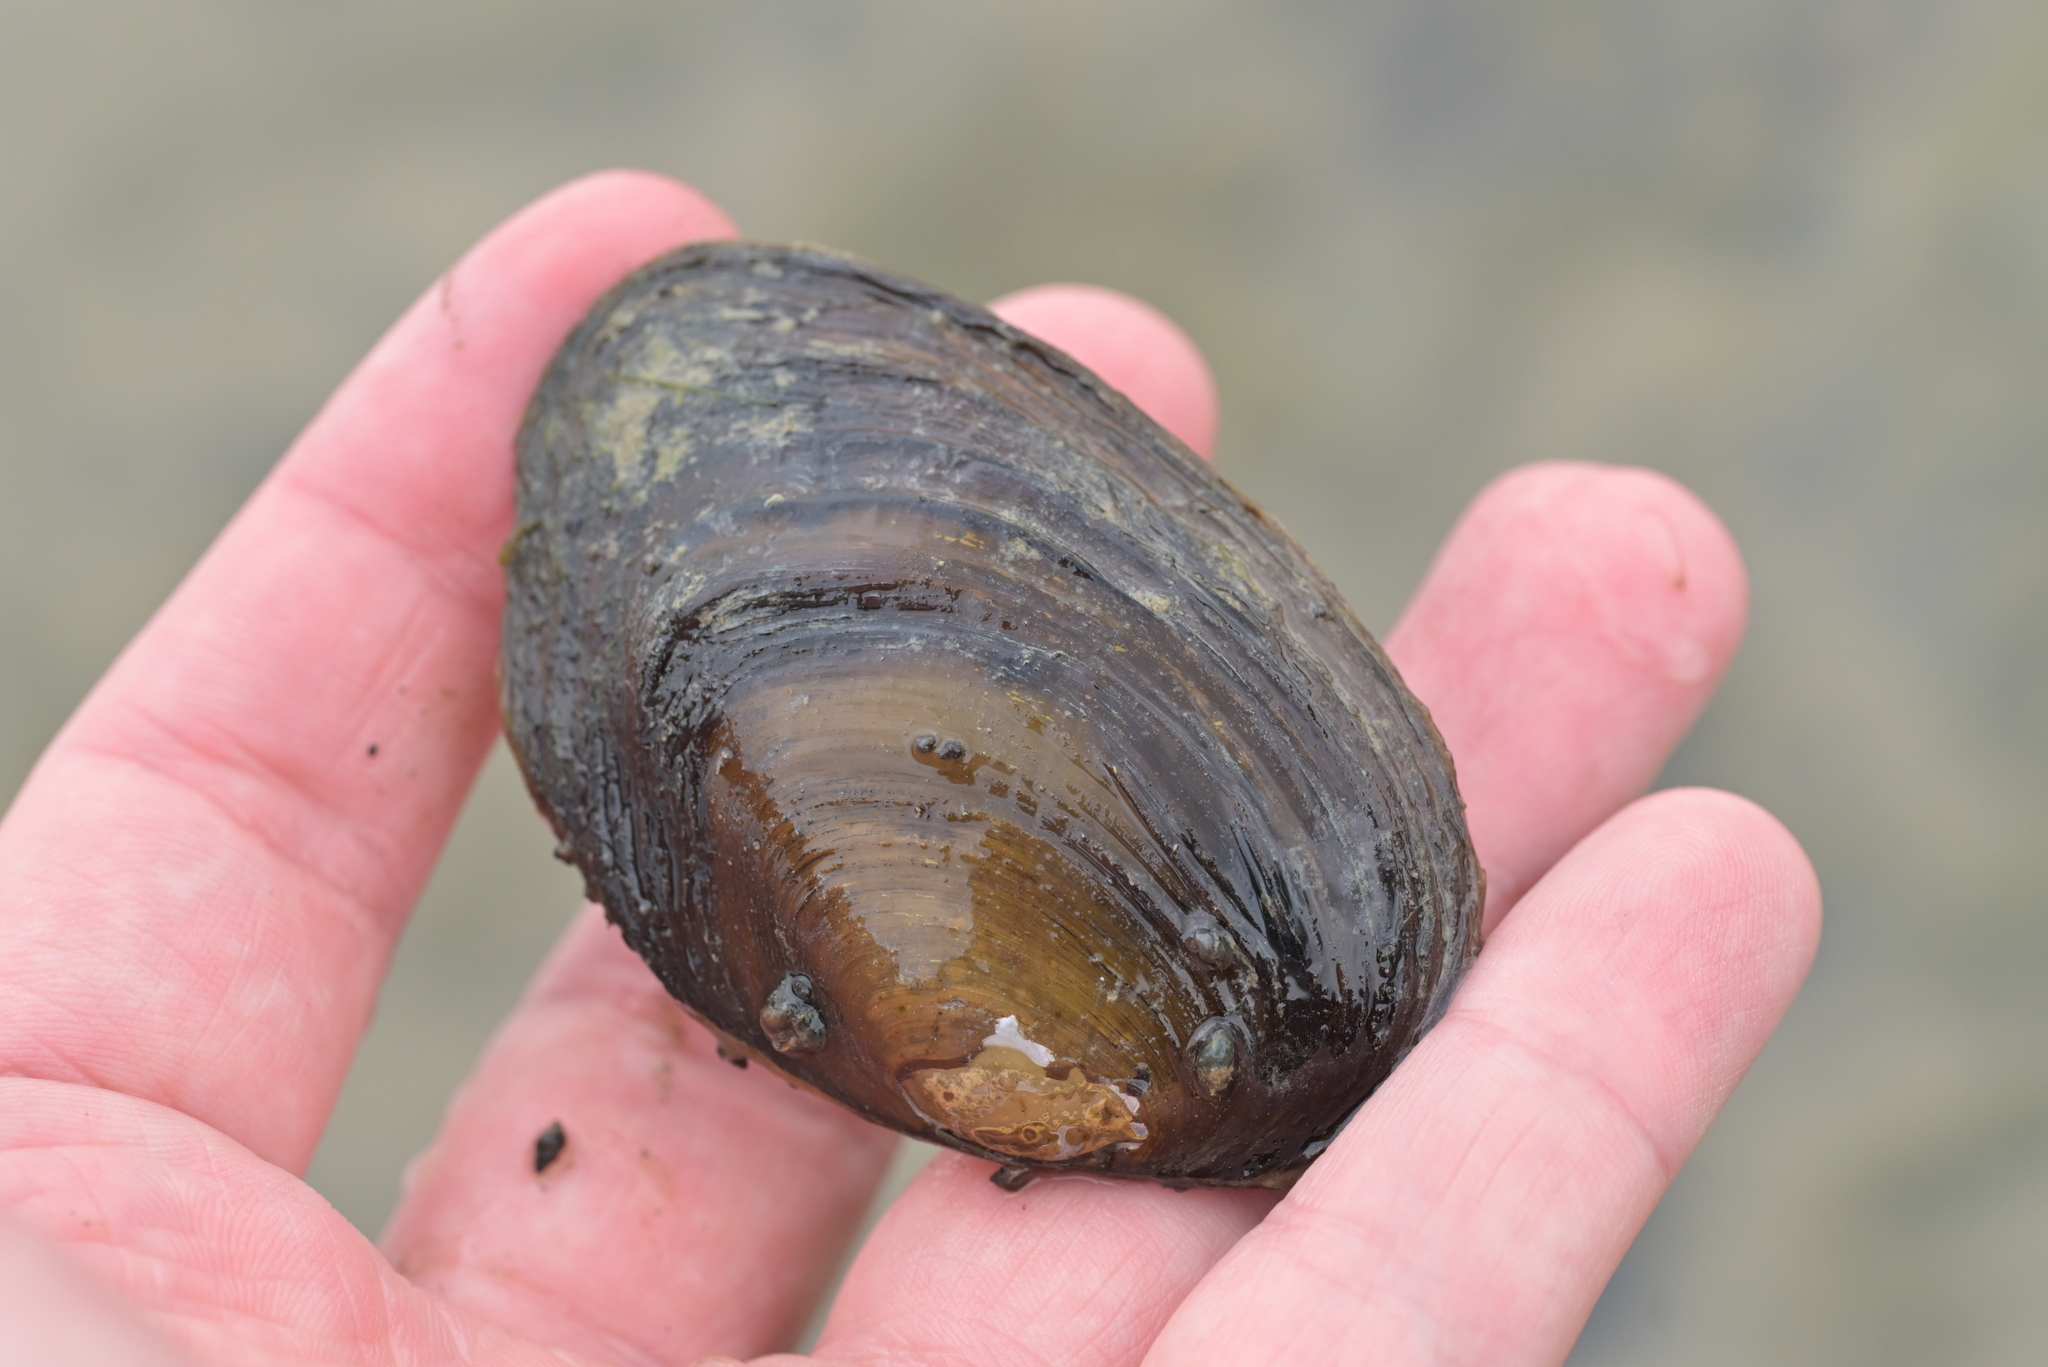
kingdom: Animalia
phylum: Mollusca
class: Bivalvia
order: Unionida
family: Hyriidae
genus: Echyridella
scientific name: Echyridella menziesii
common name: New zealand freshwater mussel
